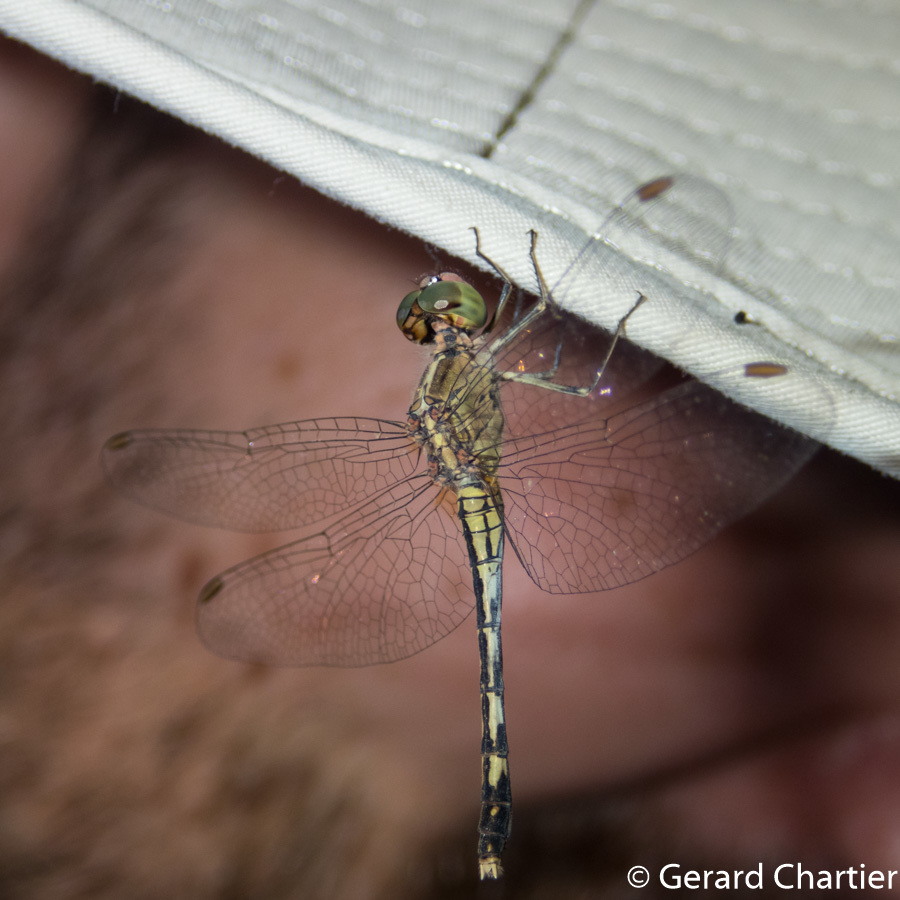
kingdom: Animalia
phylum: Arthropoda
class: Insecta
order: Odonata
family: Libellulidae
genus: Diplacodes
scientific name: Diplacodes trivialis
